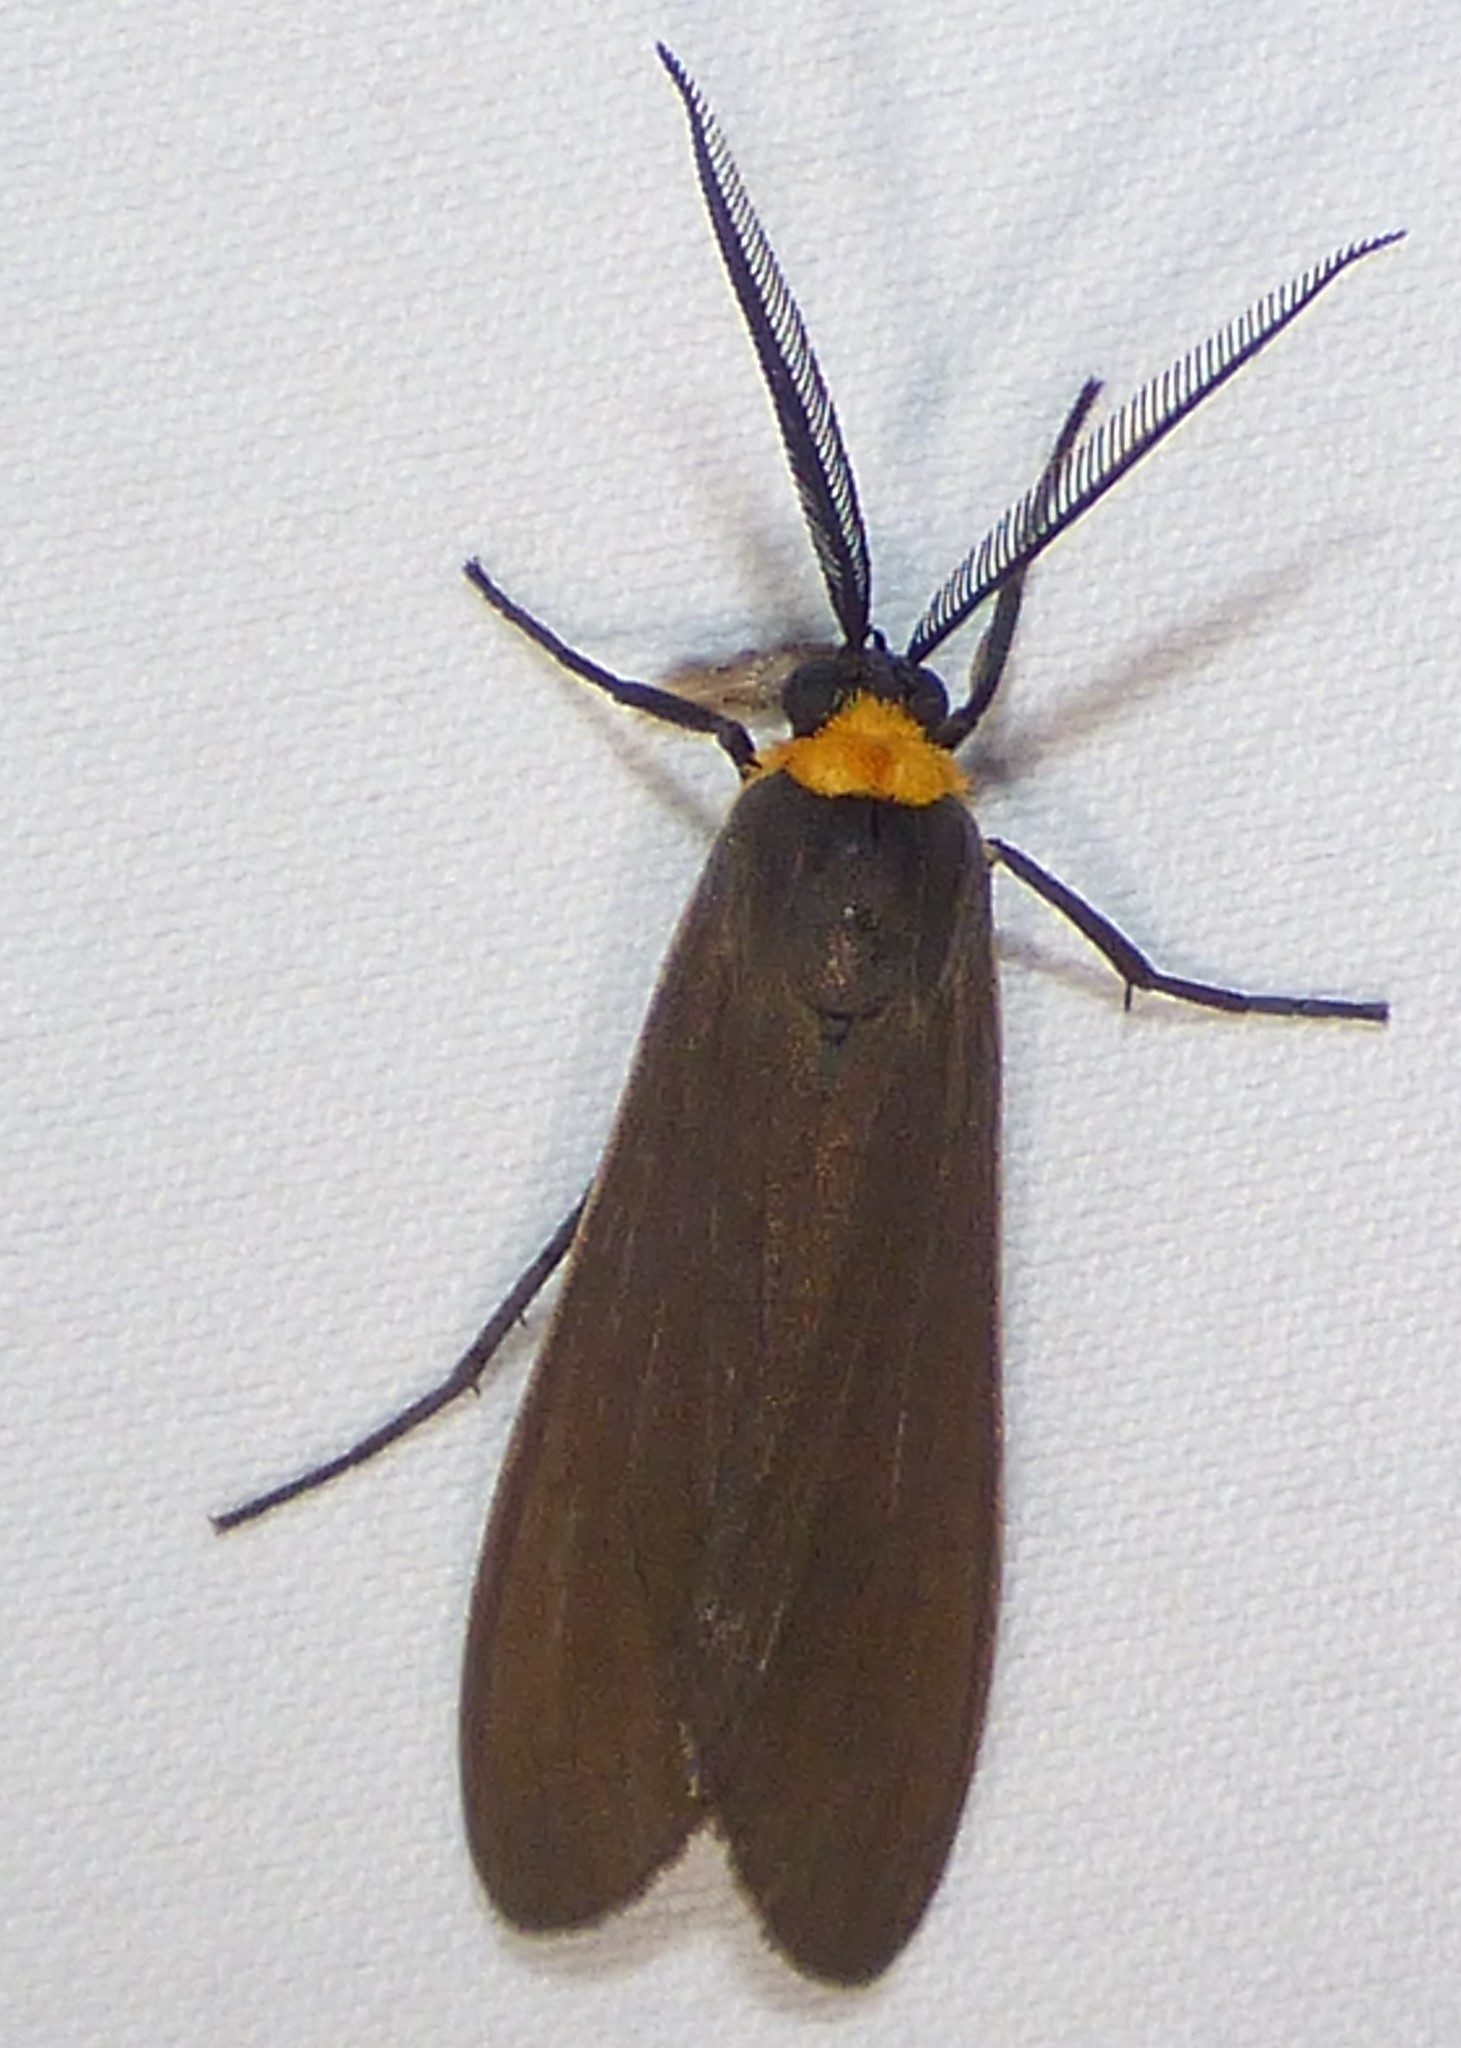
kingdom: Animalia
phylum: Arthropoda
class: Insecta
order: Lepidoptera
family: Erebidae
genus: Cisseps
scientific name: Cisseps fulvicollis
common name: Yellow-collared scape moth
